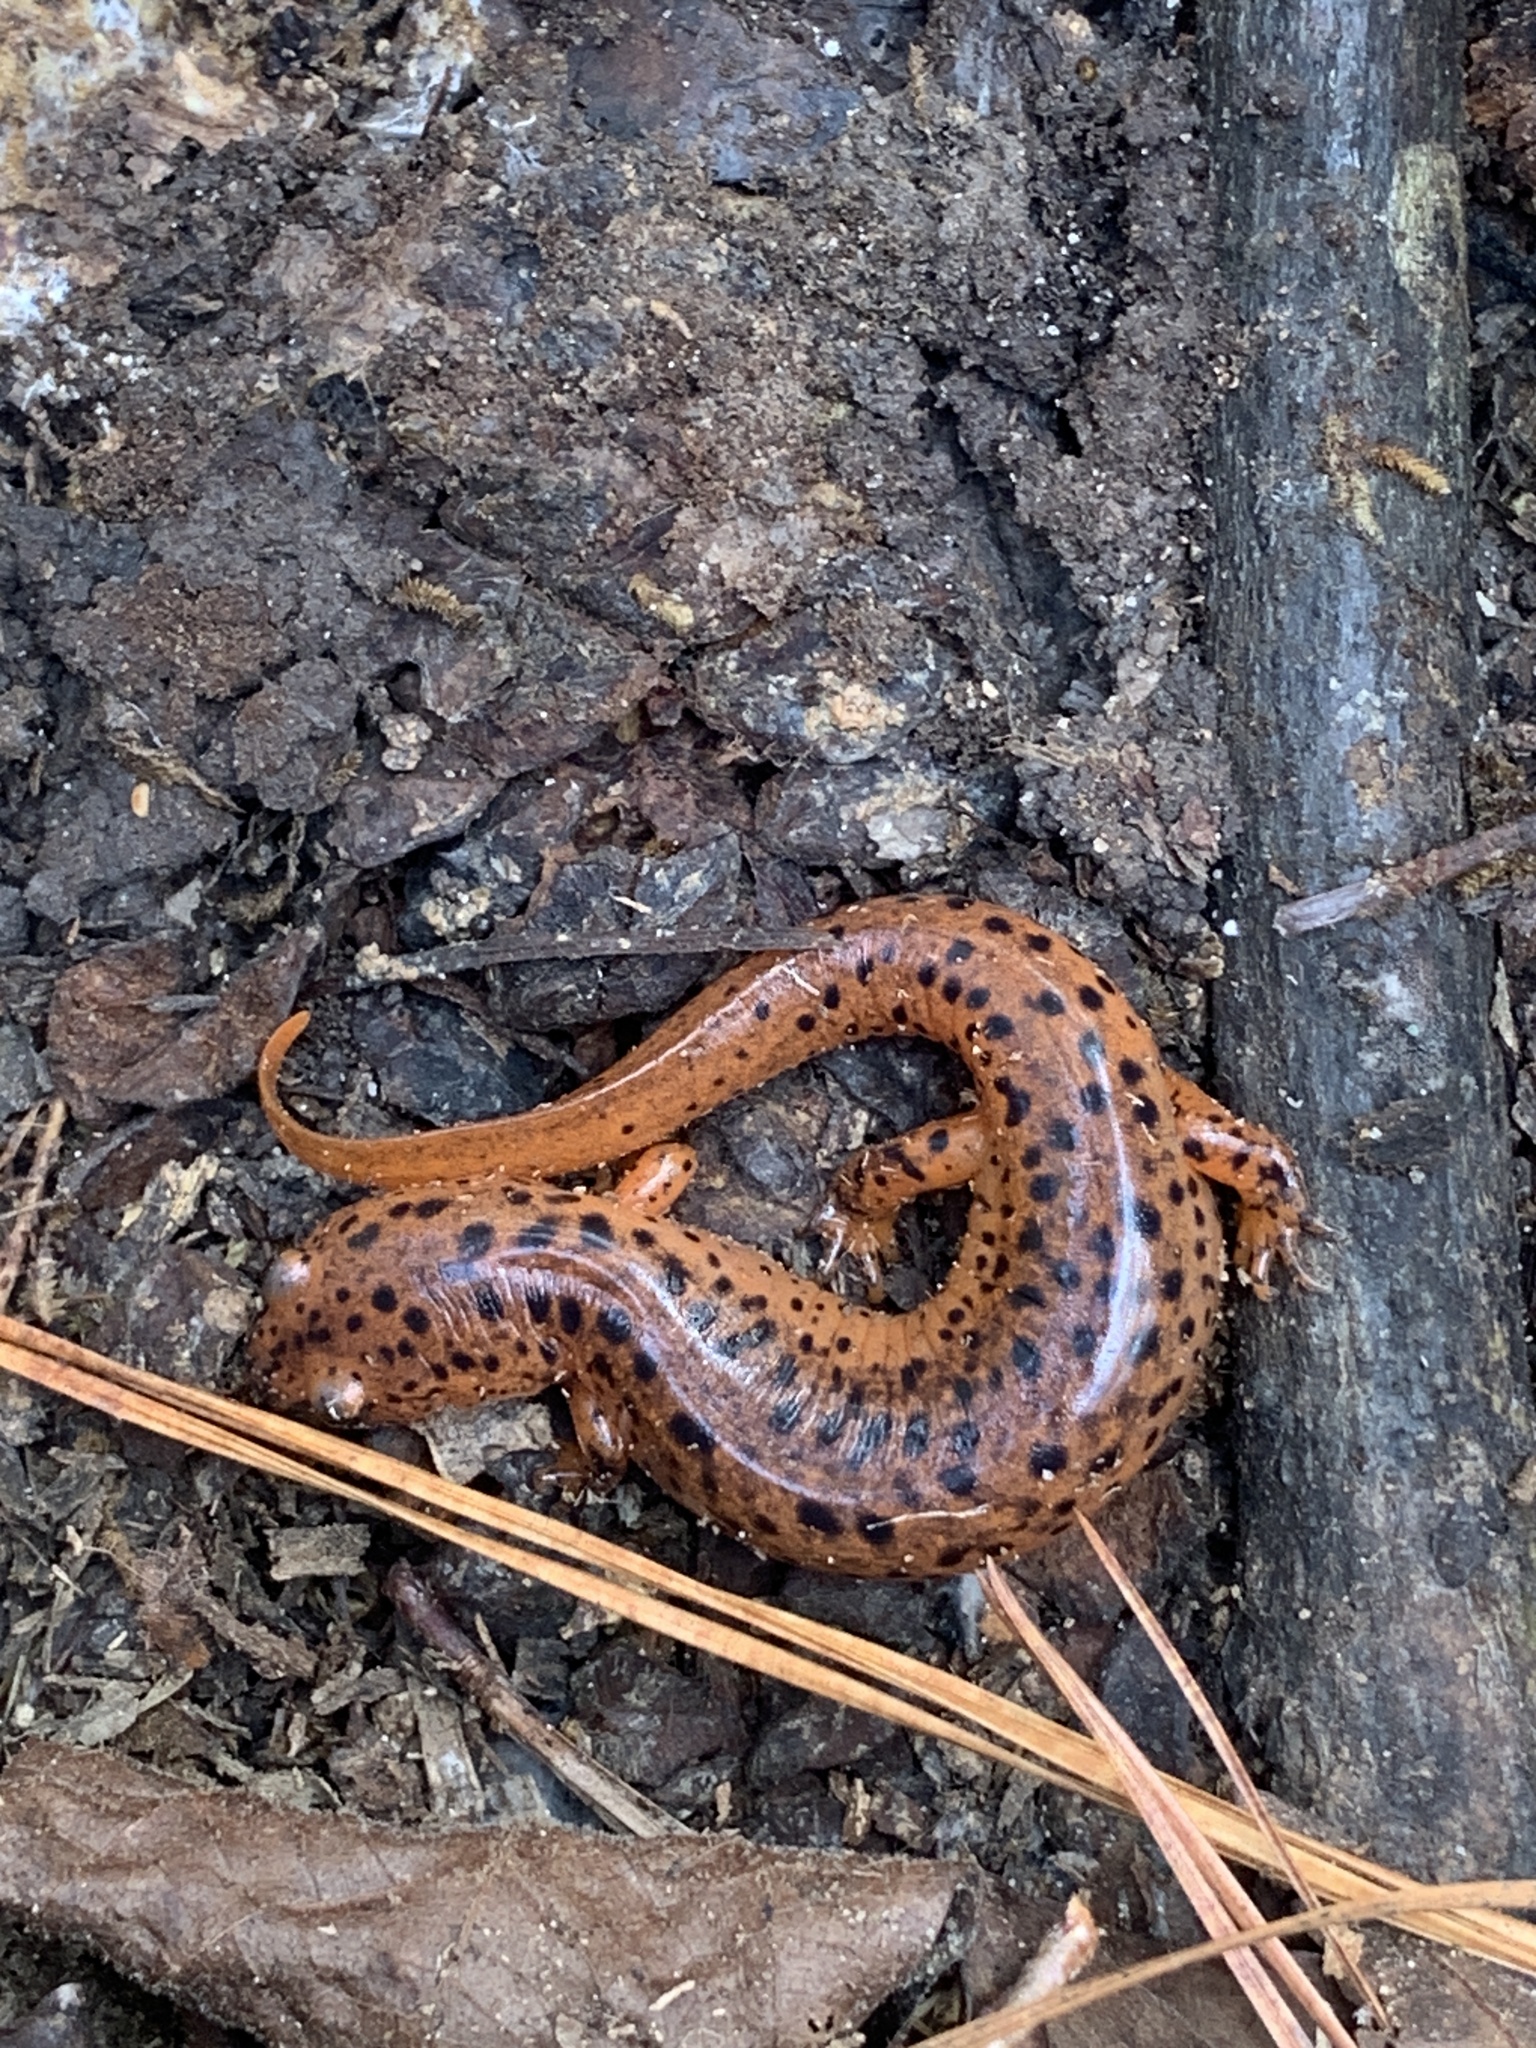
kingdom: Animalia
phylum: Chordata
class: Amphibia
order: Caudata
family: Plethodontidae
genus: Pseudotriton
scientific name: Pseudotriton ruber
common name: Red salamander
